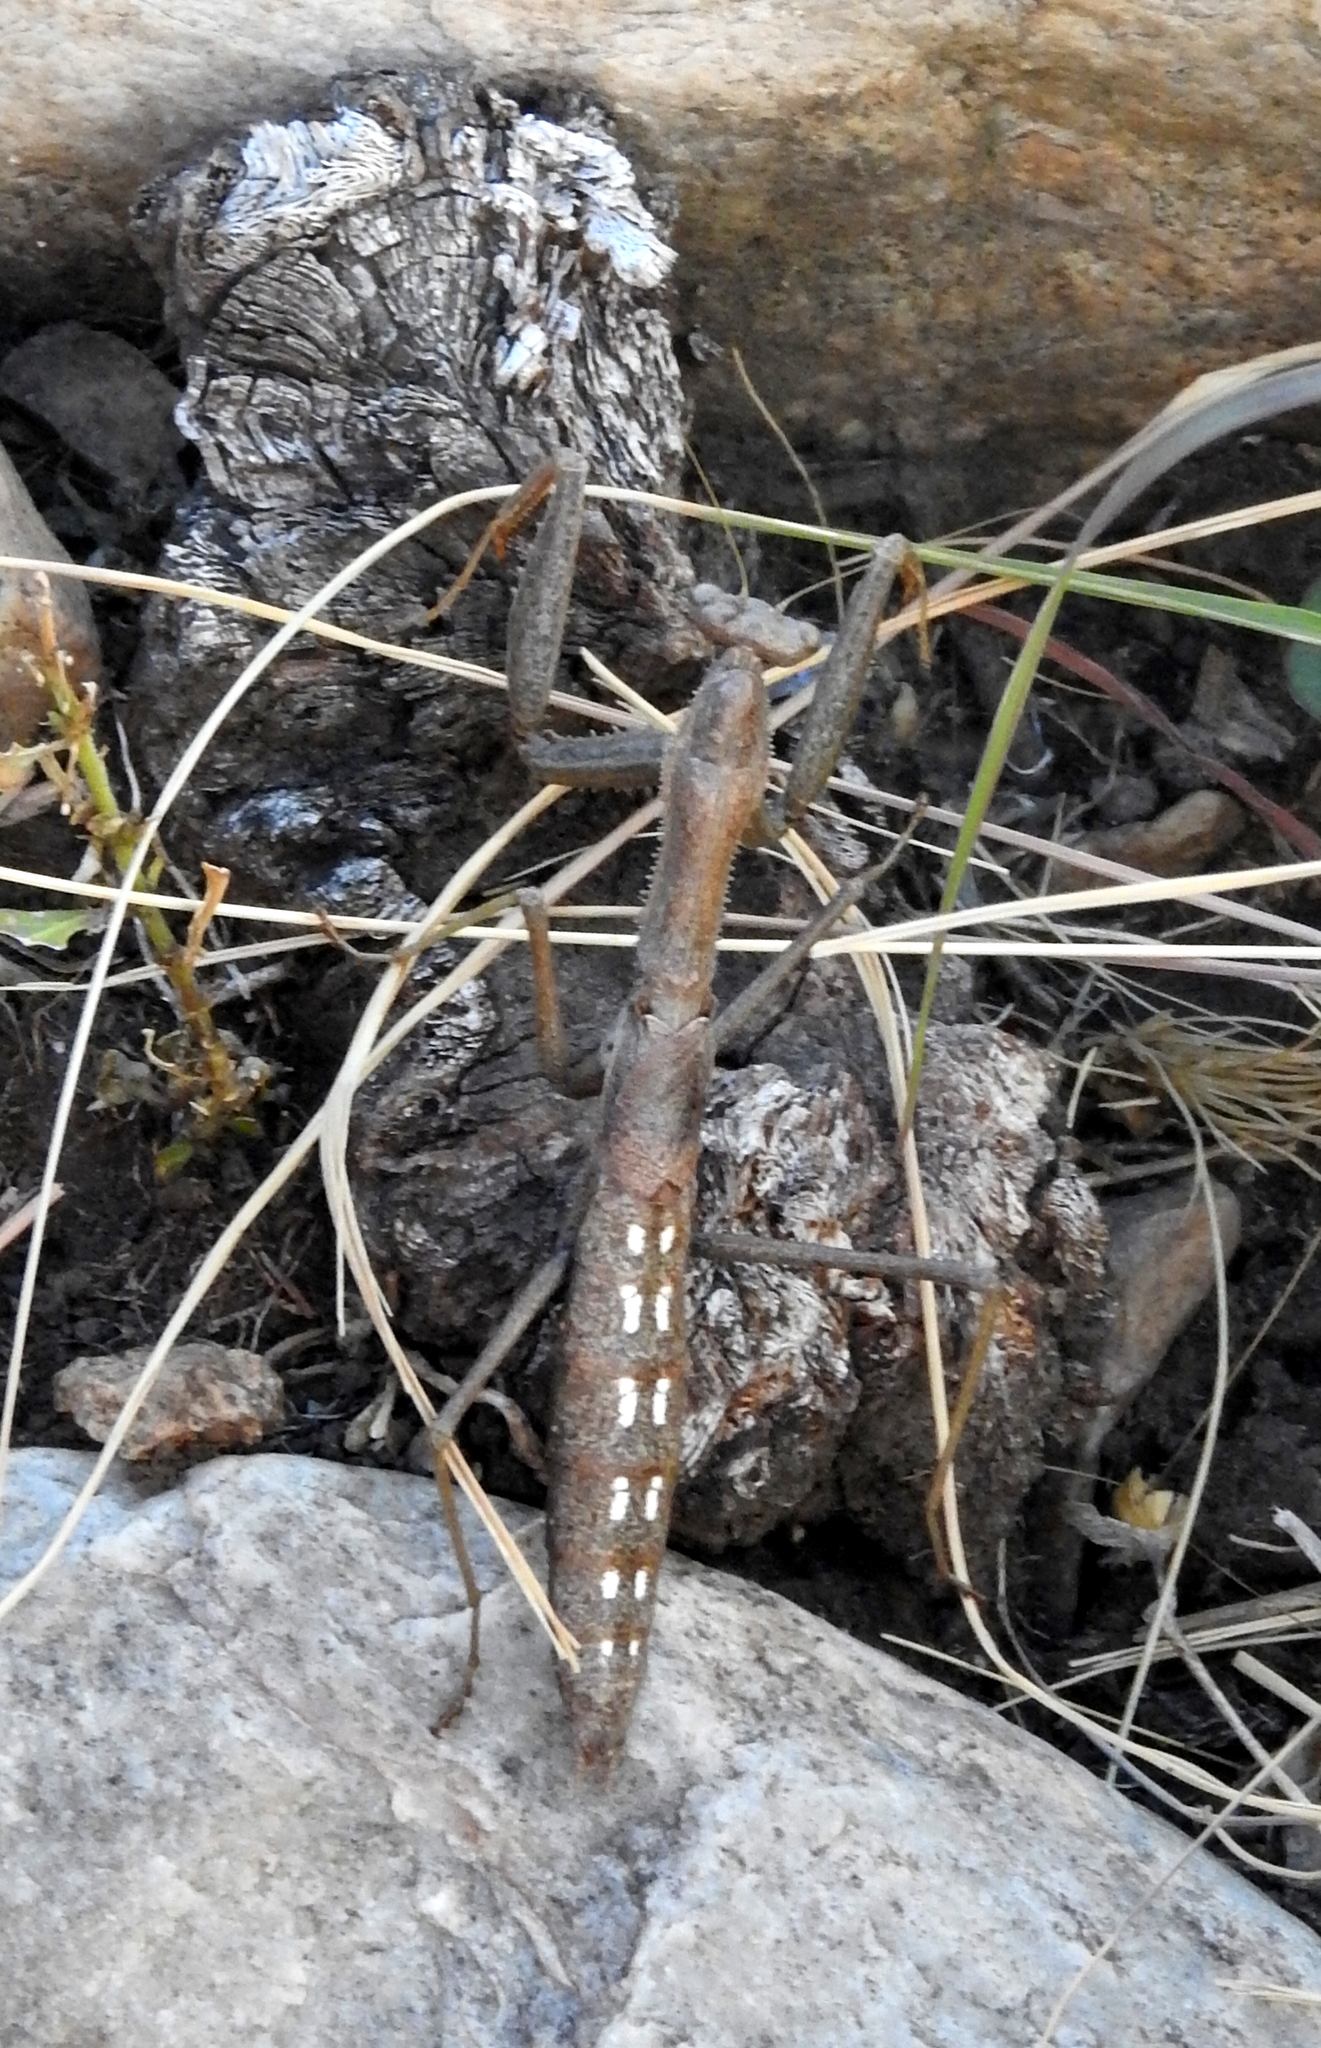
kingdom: Animalia
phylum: Arthropoda
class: Insecta
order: Mantodea
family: Coptopterygidae
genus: Coptopteryx
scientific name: Coptopteryx gayi
